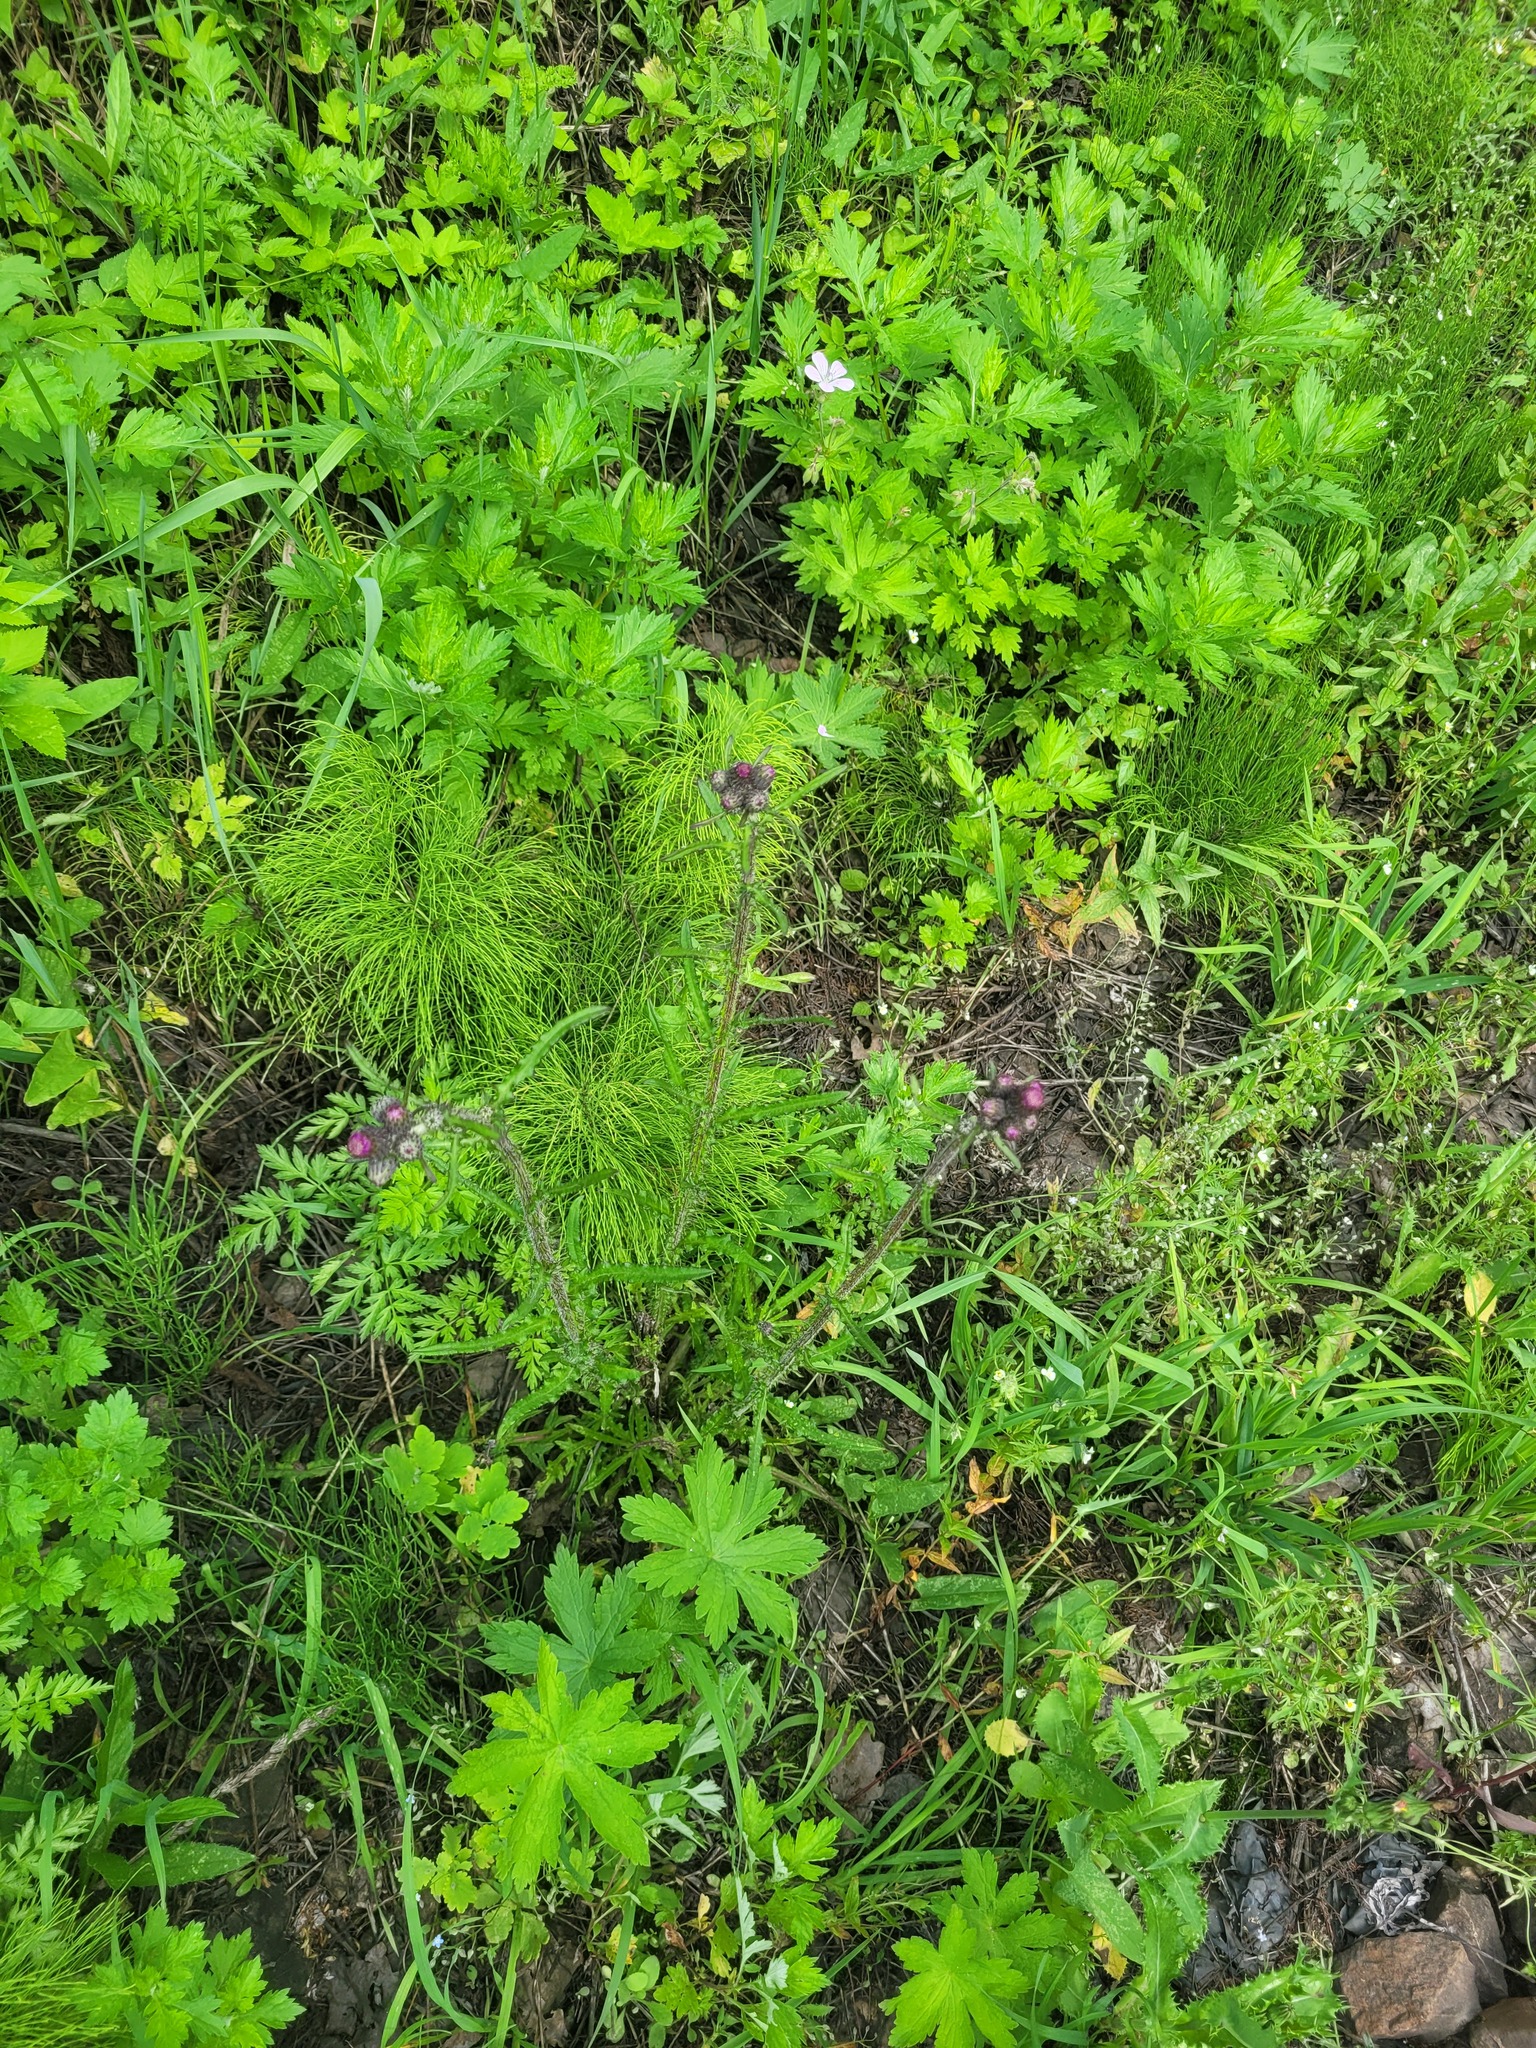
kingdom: Plantae
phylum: Tracheophyta
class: Magnoliopsida
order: Asterales
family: Asteraceae
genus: Cirsium
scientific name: Cirsium palustre
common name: Marsh thistle
